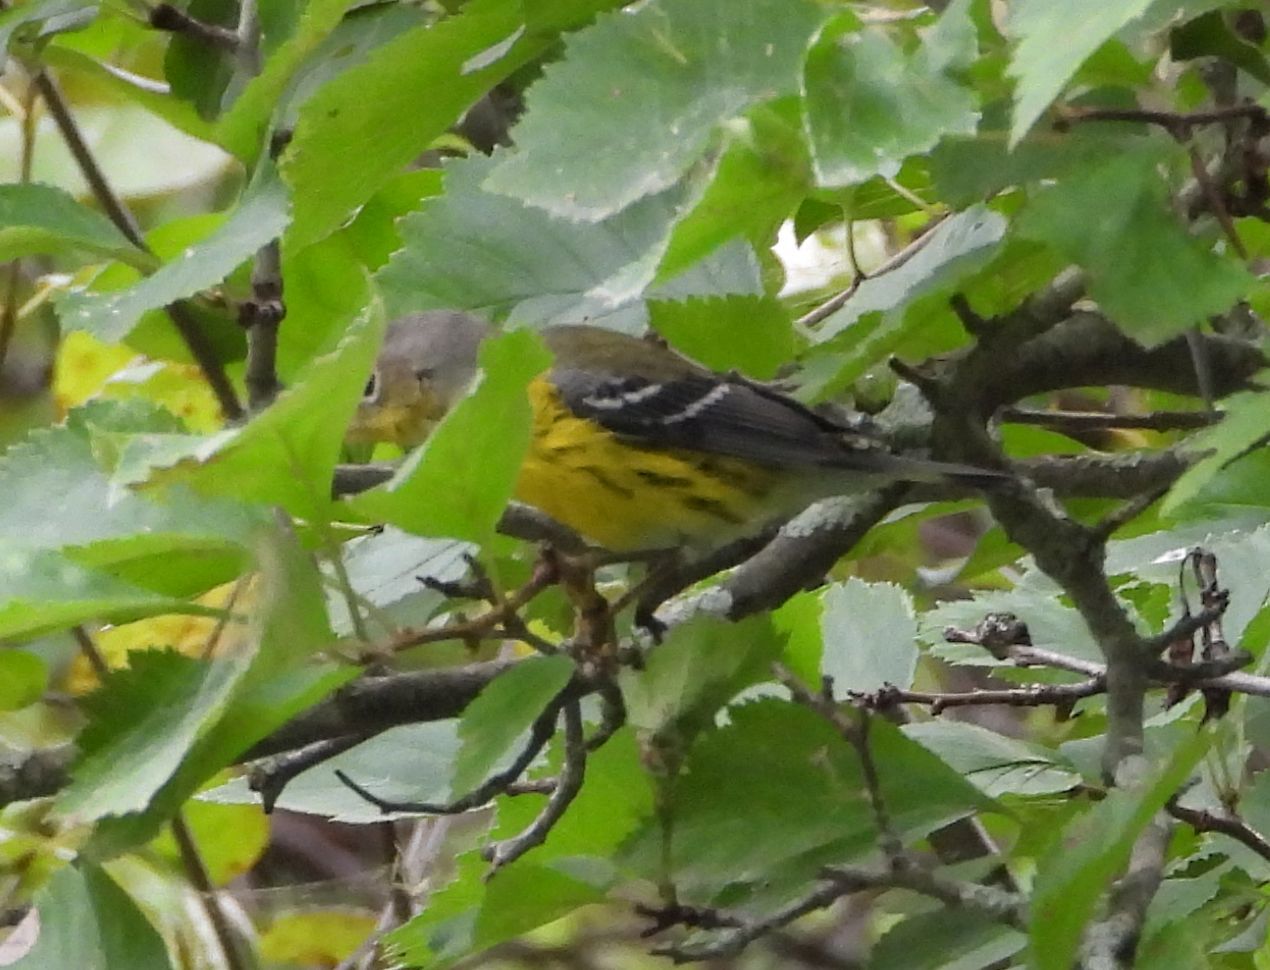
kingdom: Animalia
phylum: Chordata
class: Aves
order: Passeriformes
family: Parulidae
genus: Setophaga
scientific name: Setophaga magnolia
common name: Magnolia warbler
